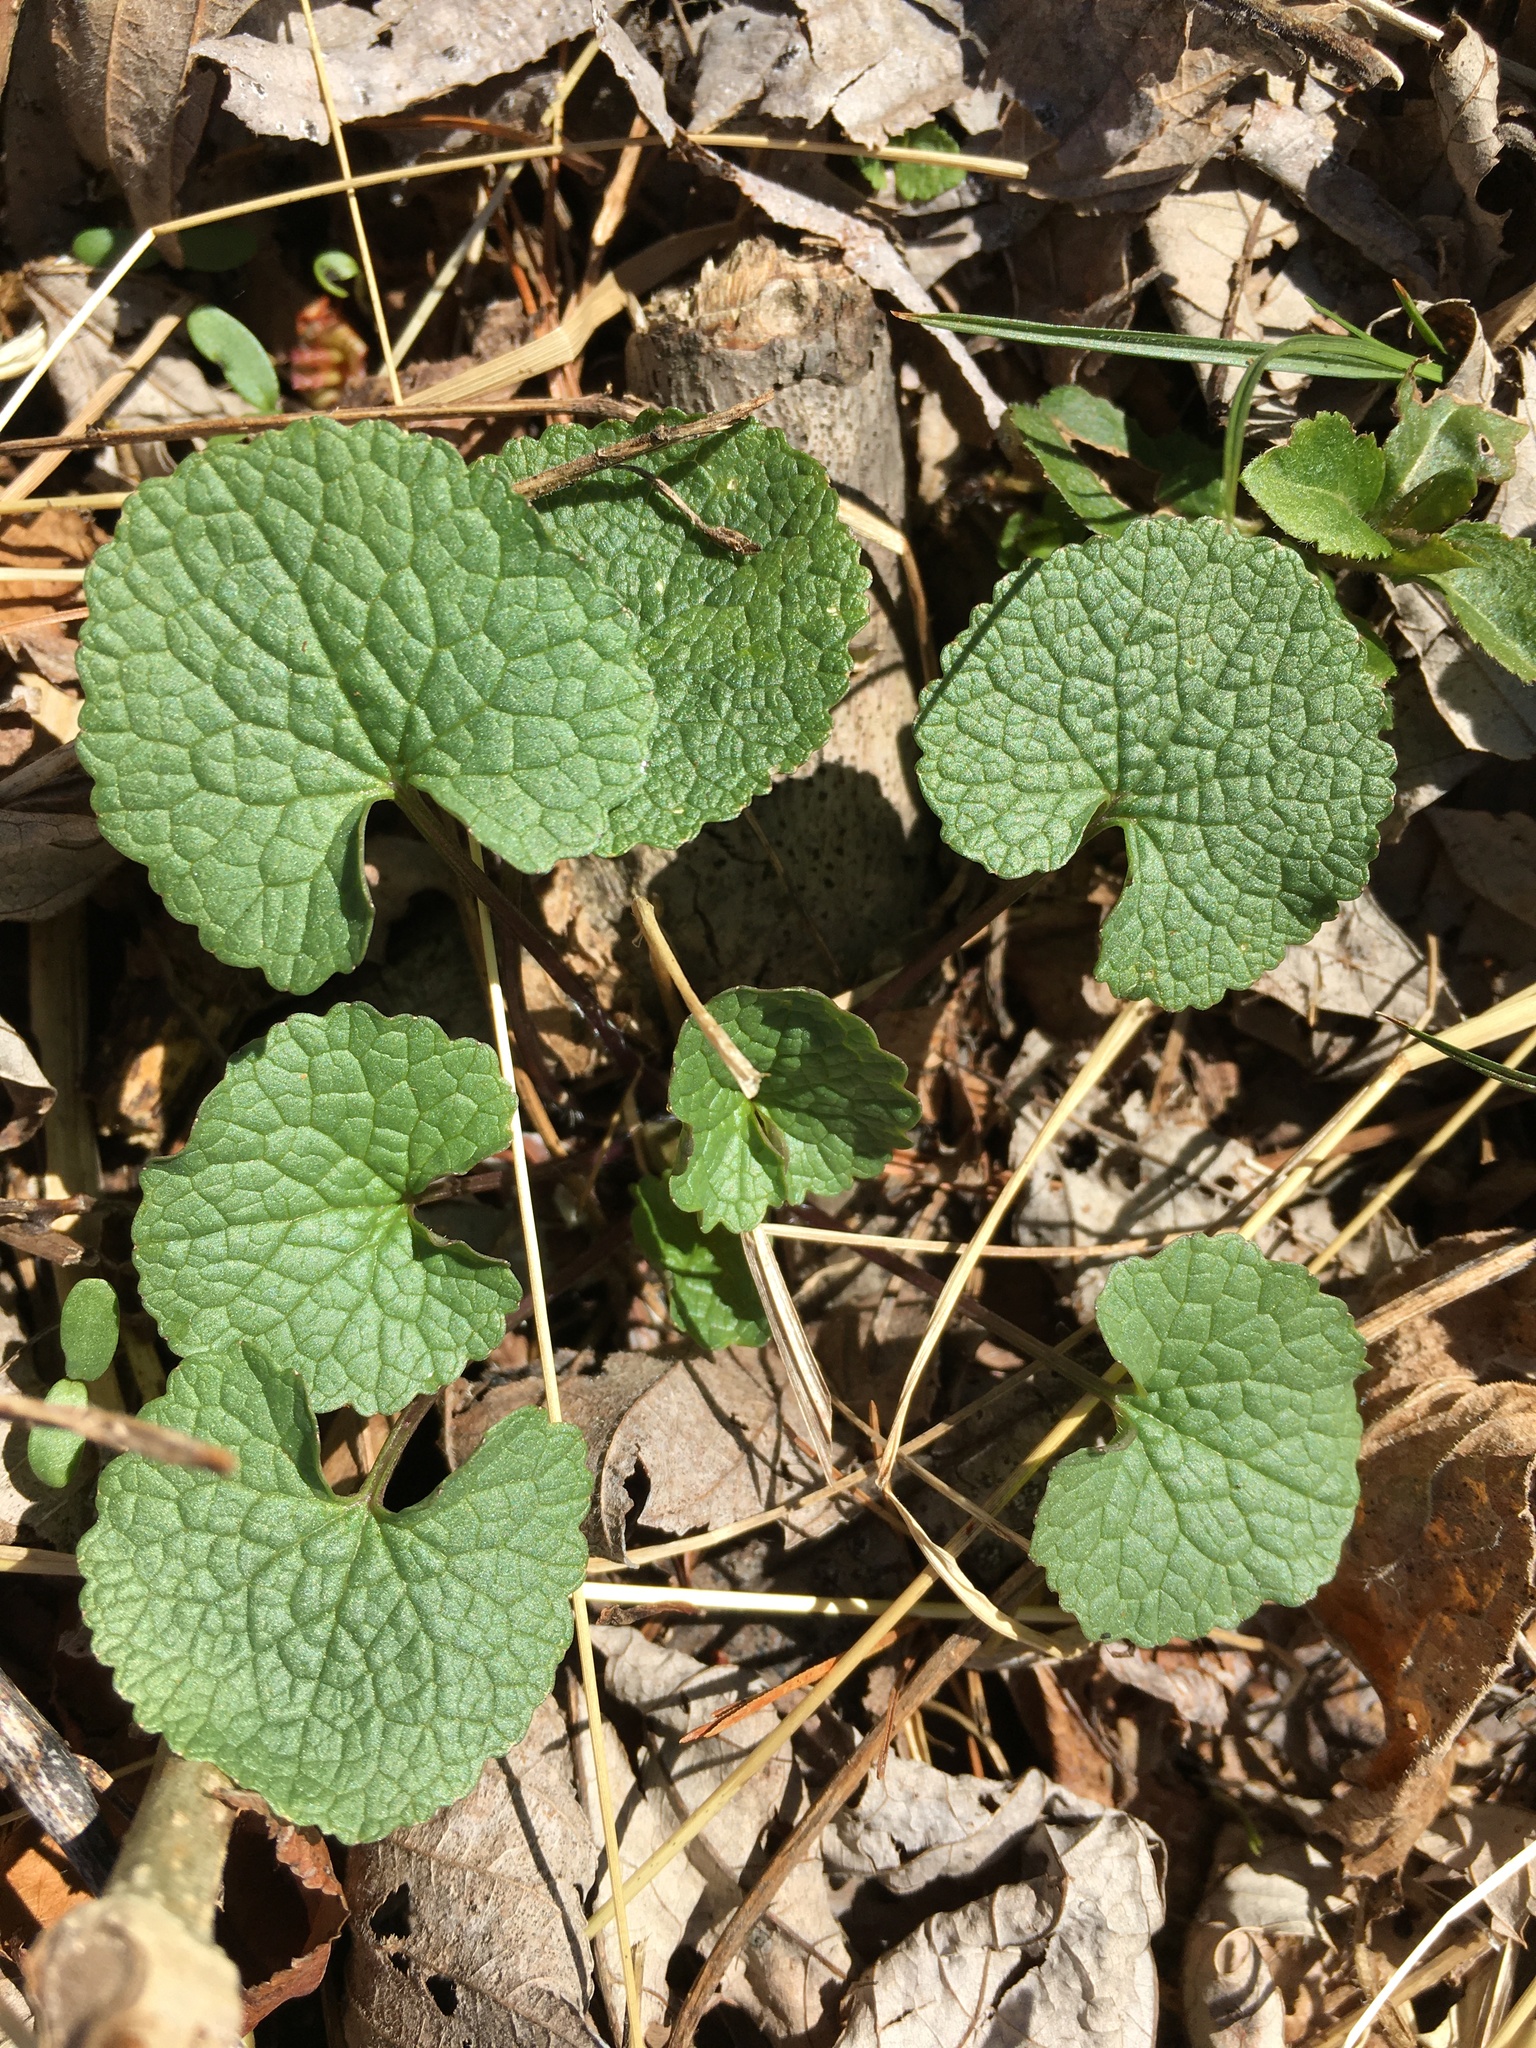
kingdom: Plantae
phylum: Tracheophyta
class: Magnoliopsida
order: Brassicales
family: Brassicaceae
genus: Alliaria
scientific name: Alliaria petiolata
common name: Garlic mustard
